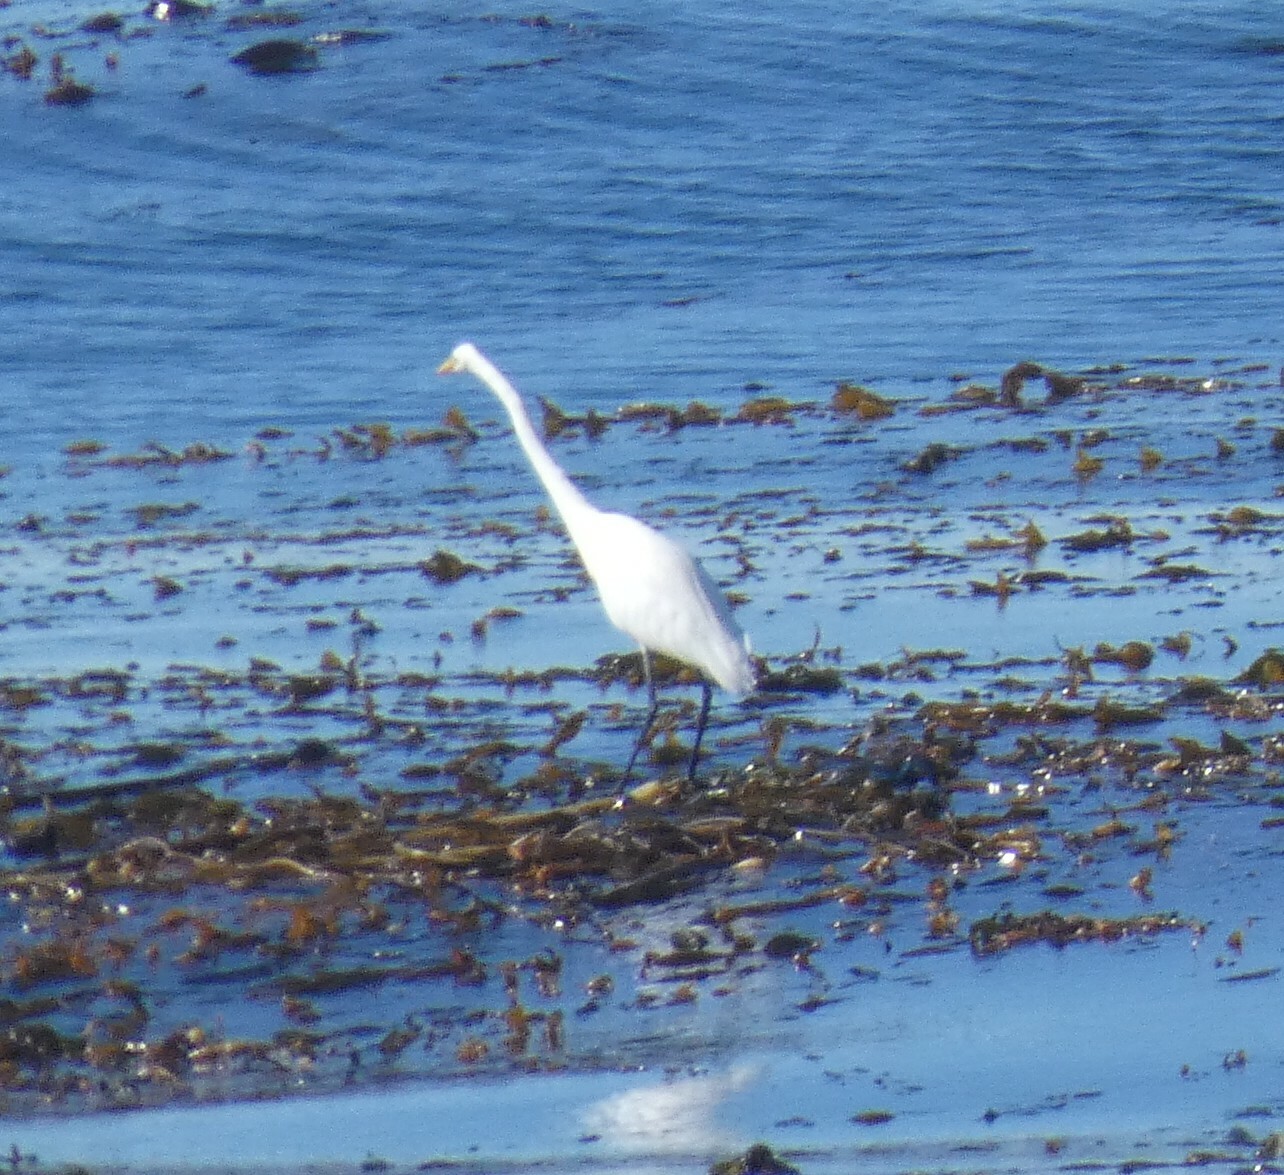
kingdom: Animalia
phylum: Chordata
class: Aves
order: Pelecaniformes
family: Ardeidae
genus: Ardea
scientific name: Ardea alba
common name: Great egret
